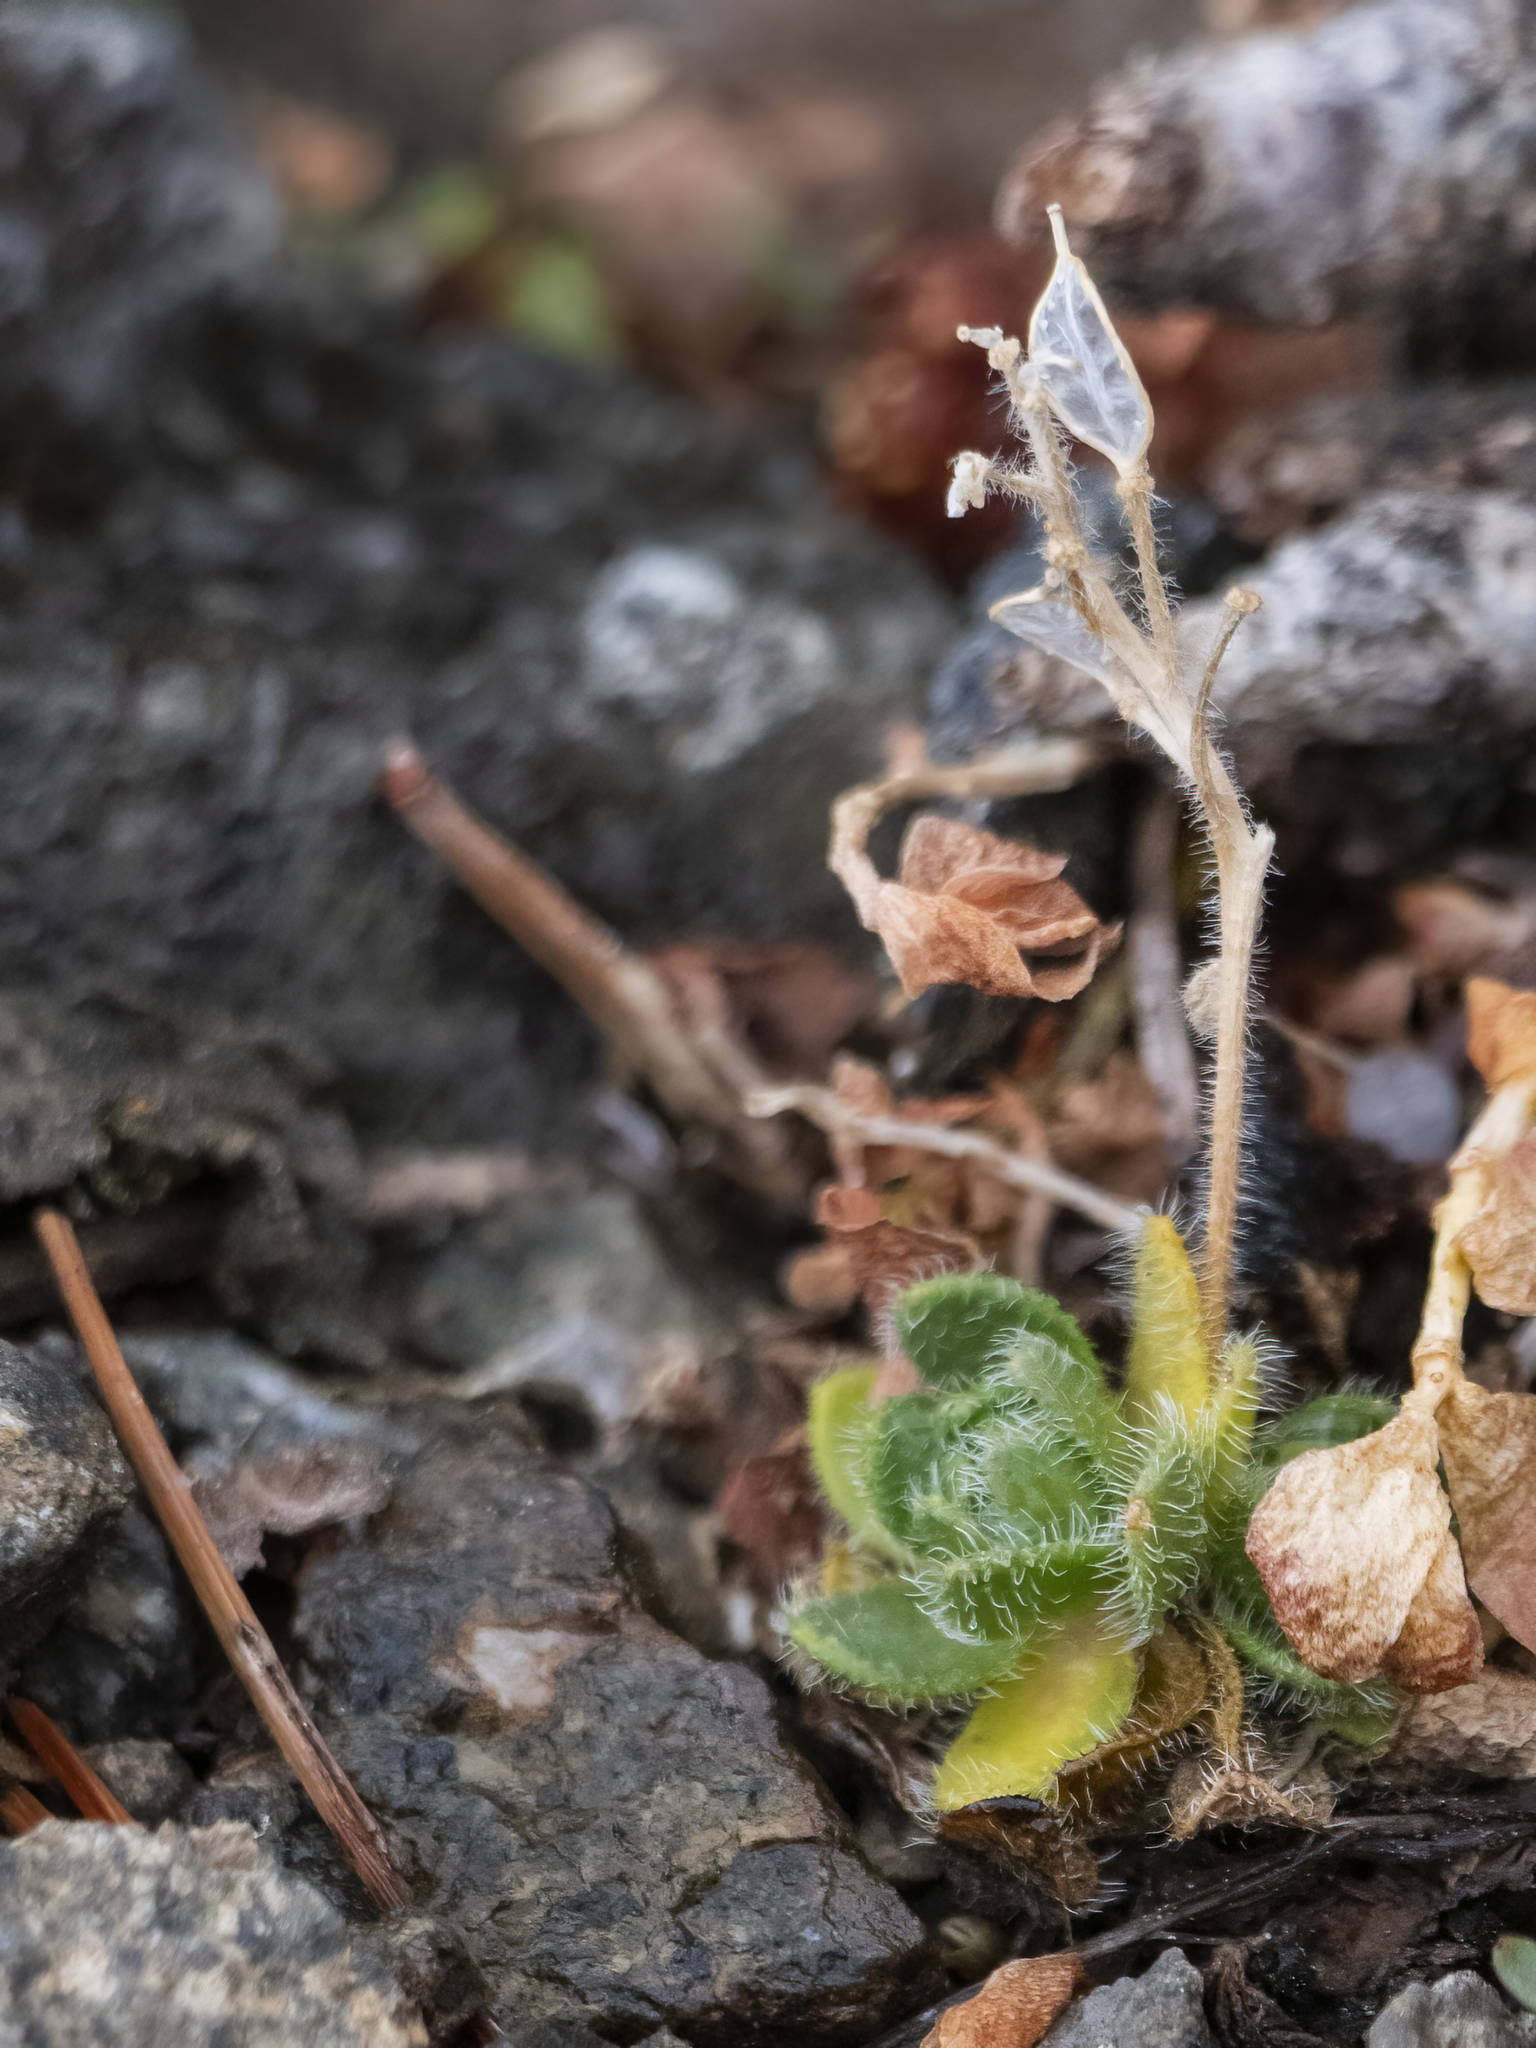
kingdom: Plantae
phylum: Tracheophyta
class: Magnoliopsida
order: Brassicales
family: Brassicaceae
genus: Draba
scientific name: Draba lemmonii
